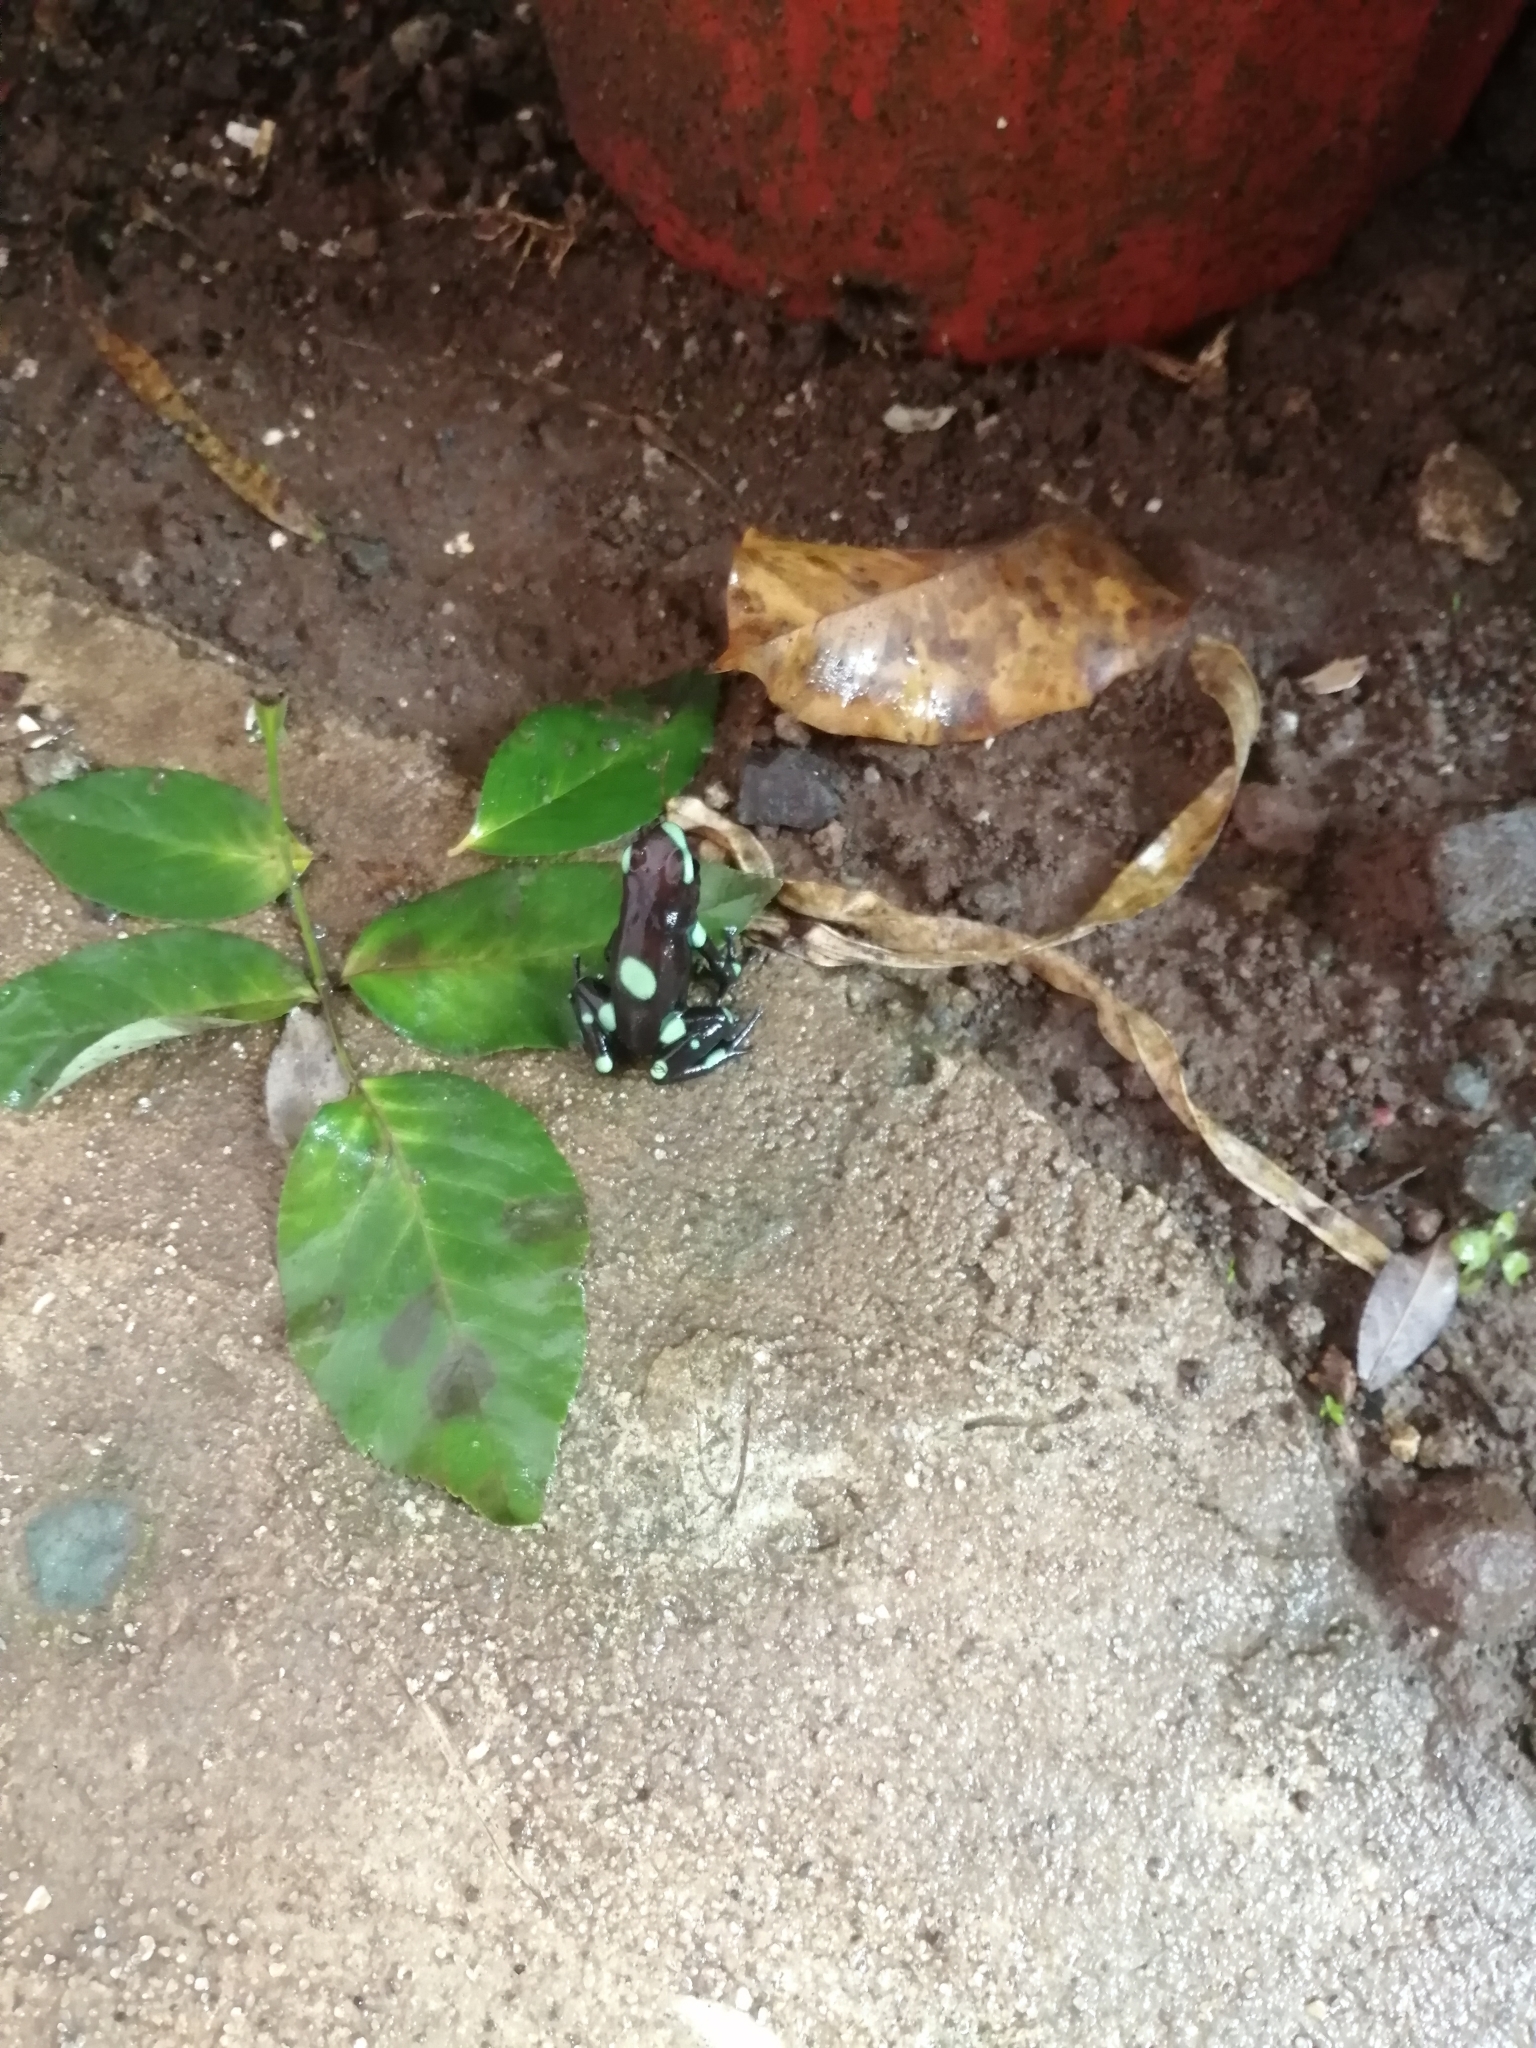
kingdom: Animalia
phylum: Chordata
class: Amphibia
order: Anura
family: Dendrobatidae
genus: Dendrobates
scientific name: Dendrobates auratus
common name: Green and black poison dart frog
